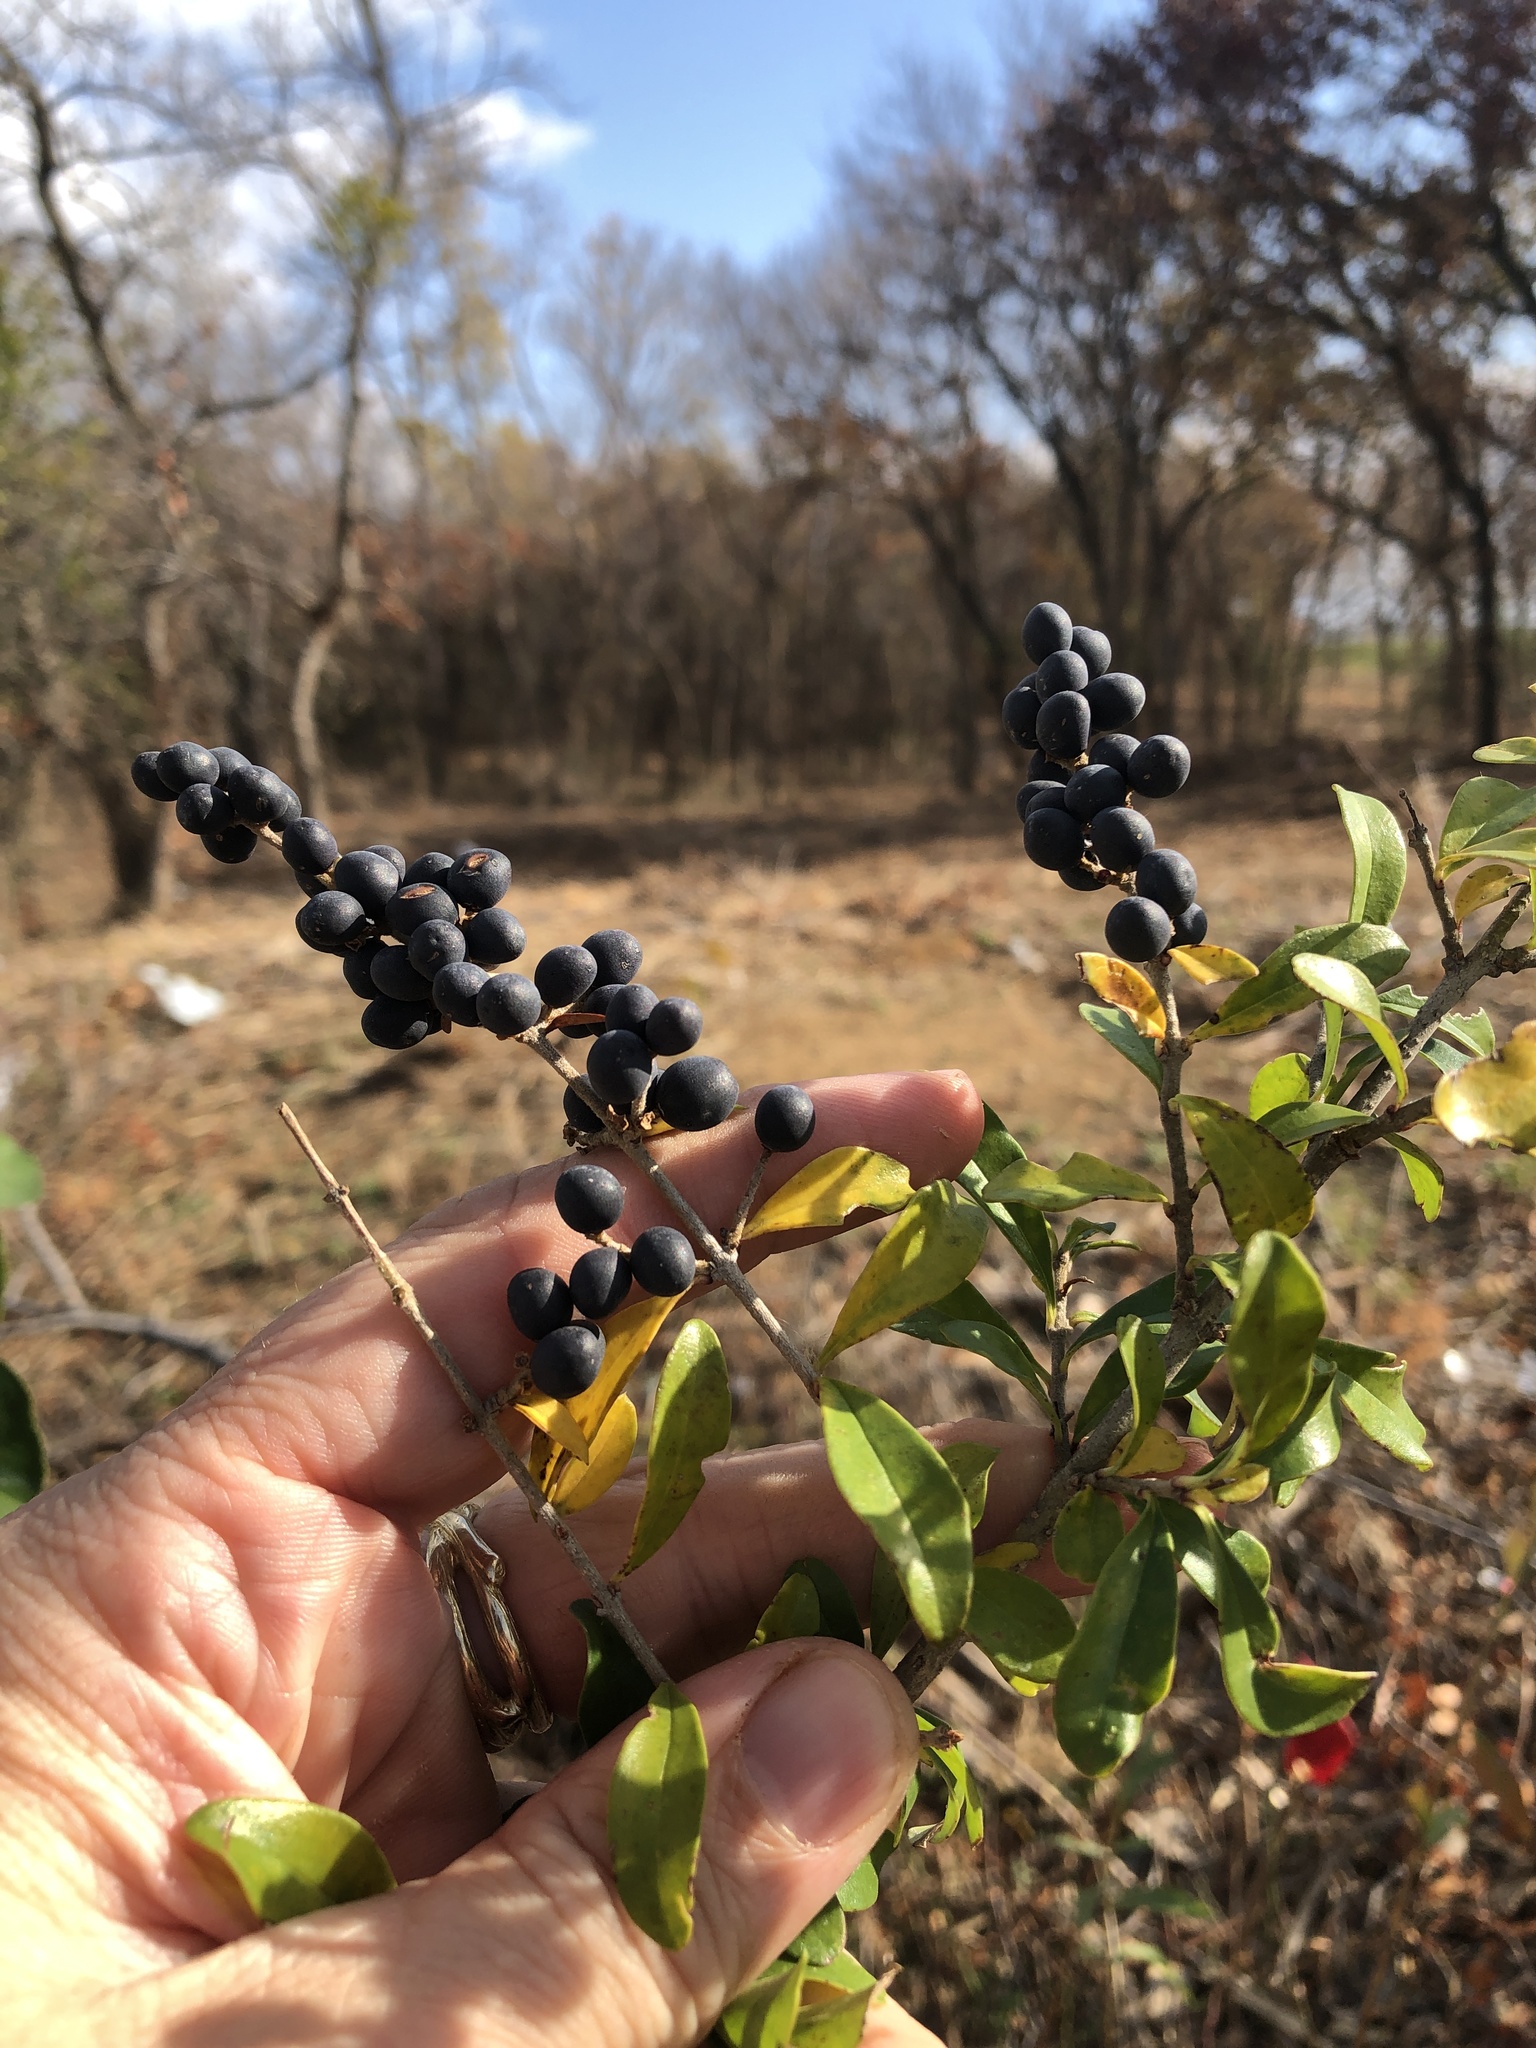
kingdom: Plantae
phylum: Tracheophyta
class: Magnoliopsida
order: Lamiales
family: Oleaceae
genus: Ligustrum
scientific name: Ligustrum quihoui
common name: Waxyleaf privet
